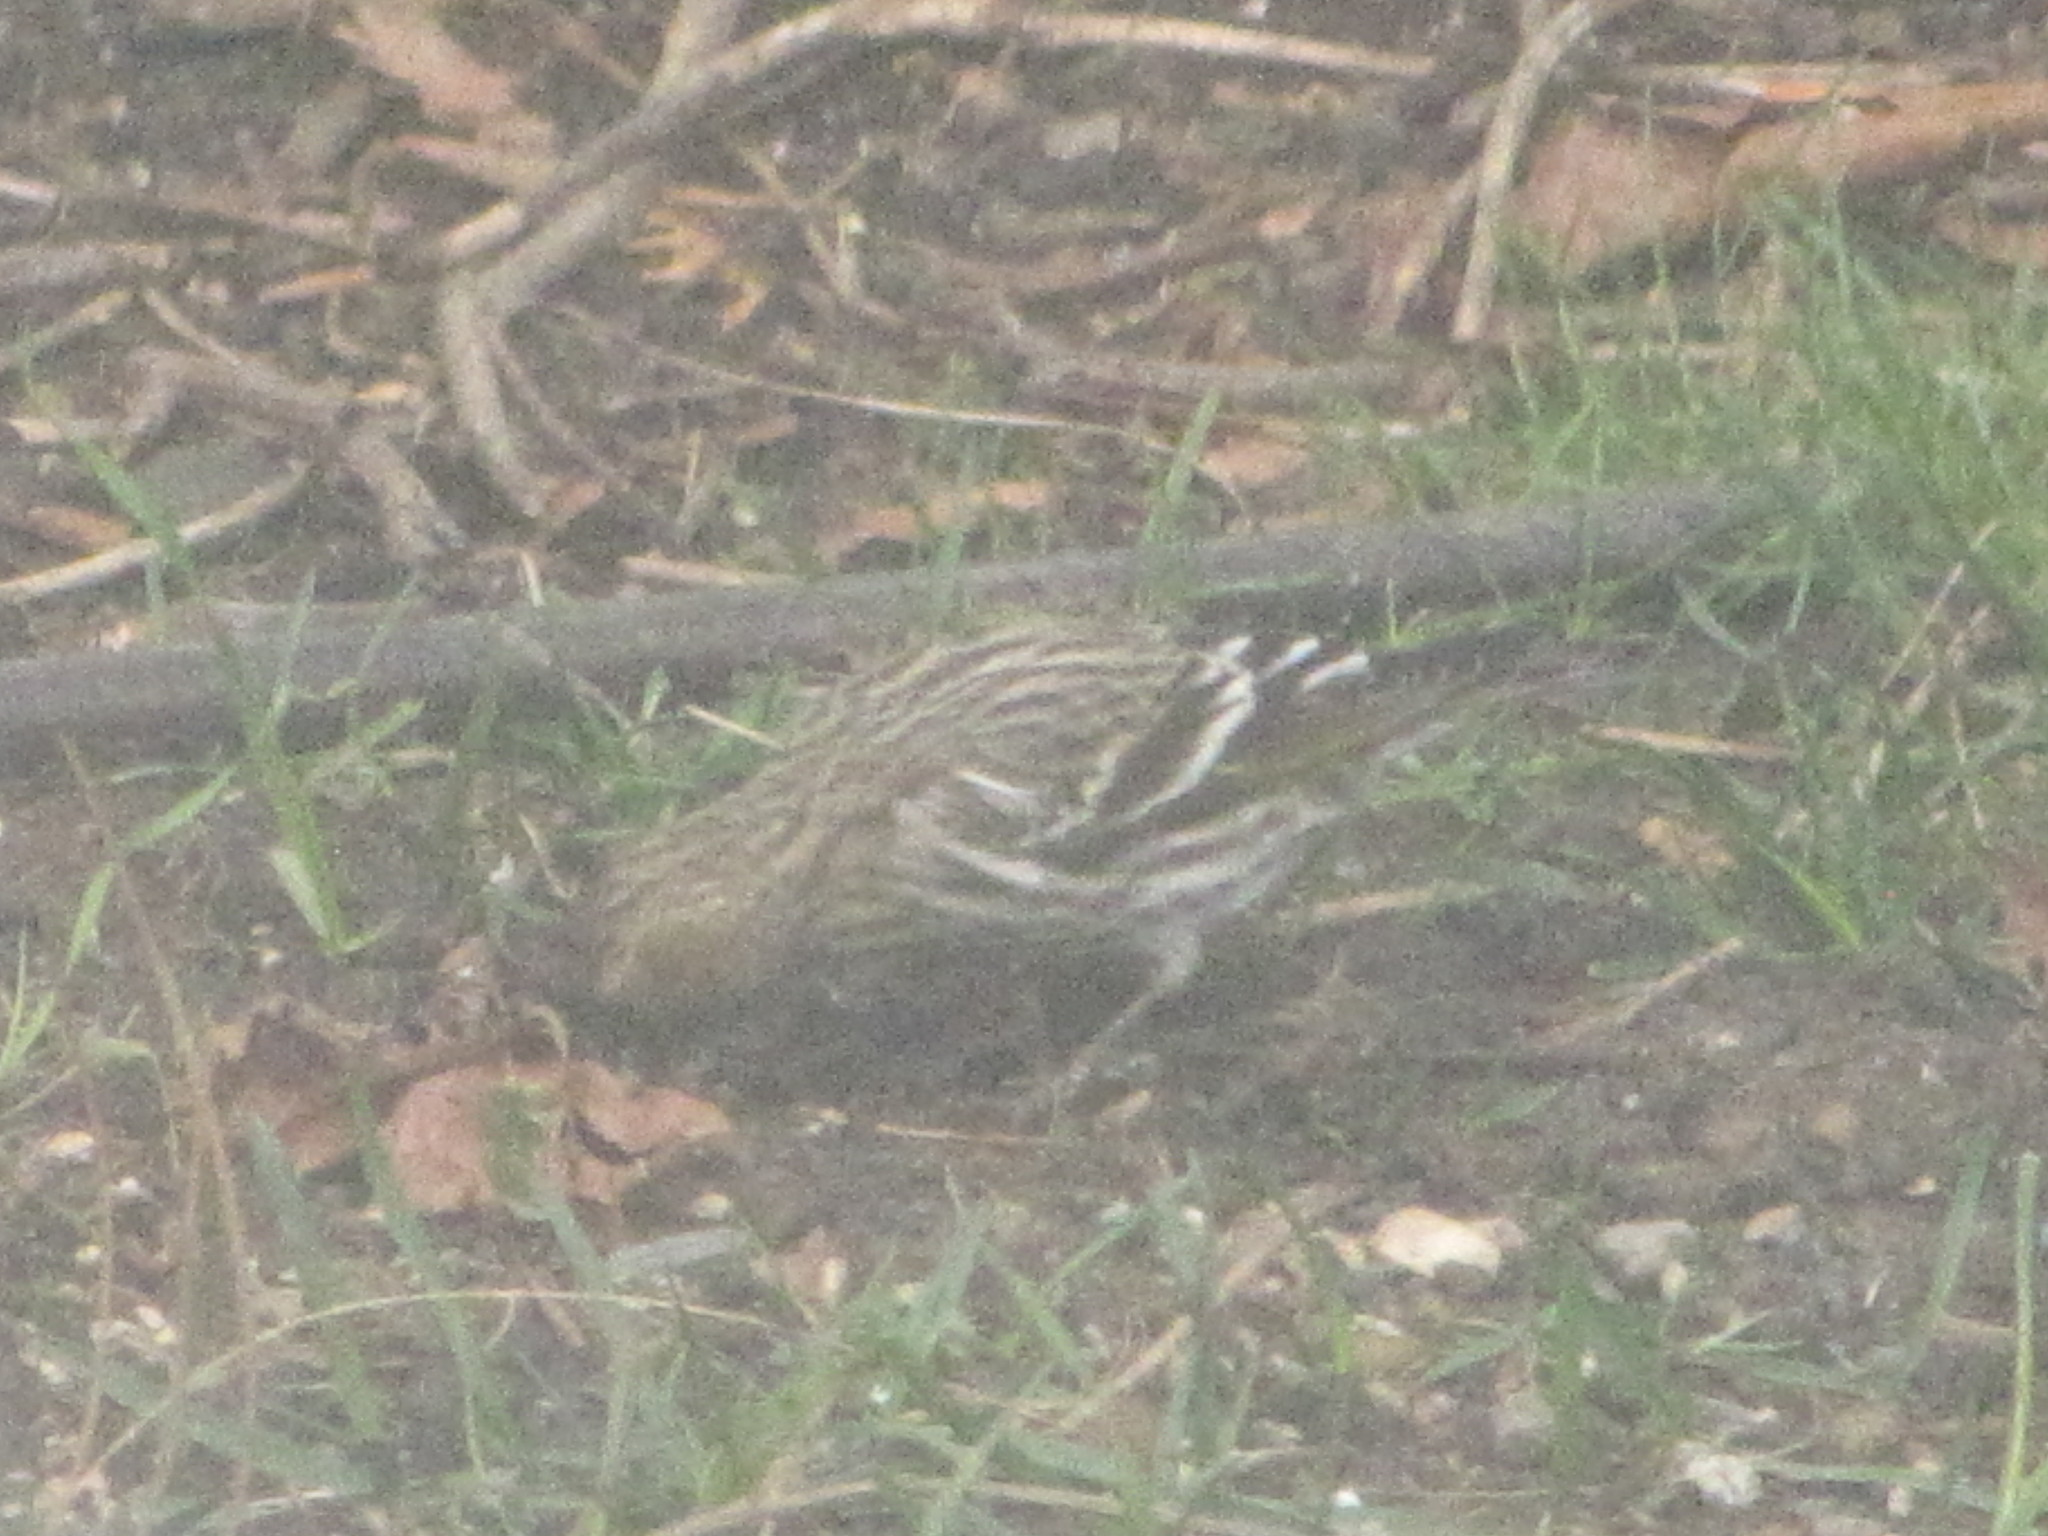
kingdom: Animalia
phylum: Chordata
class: Aves
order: Passeriformes
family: Fringillidae
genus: Spinus
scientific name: Spinus pinus
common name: Pine siskin
